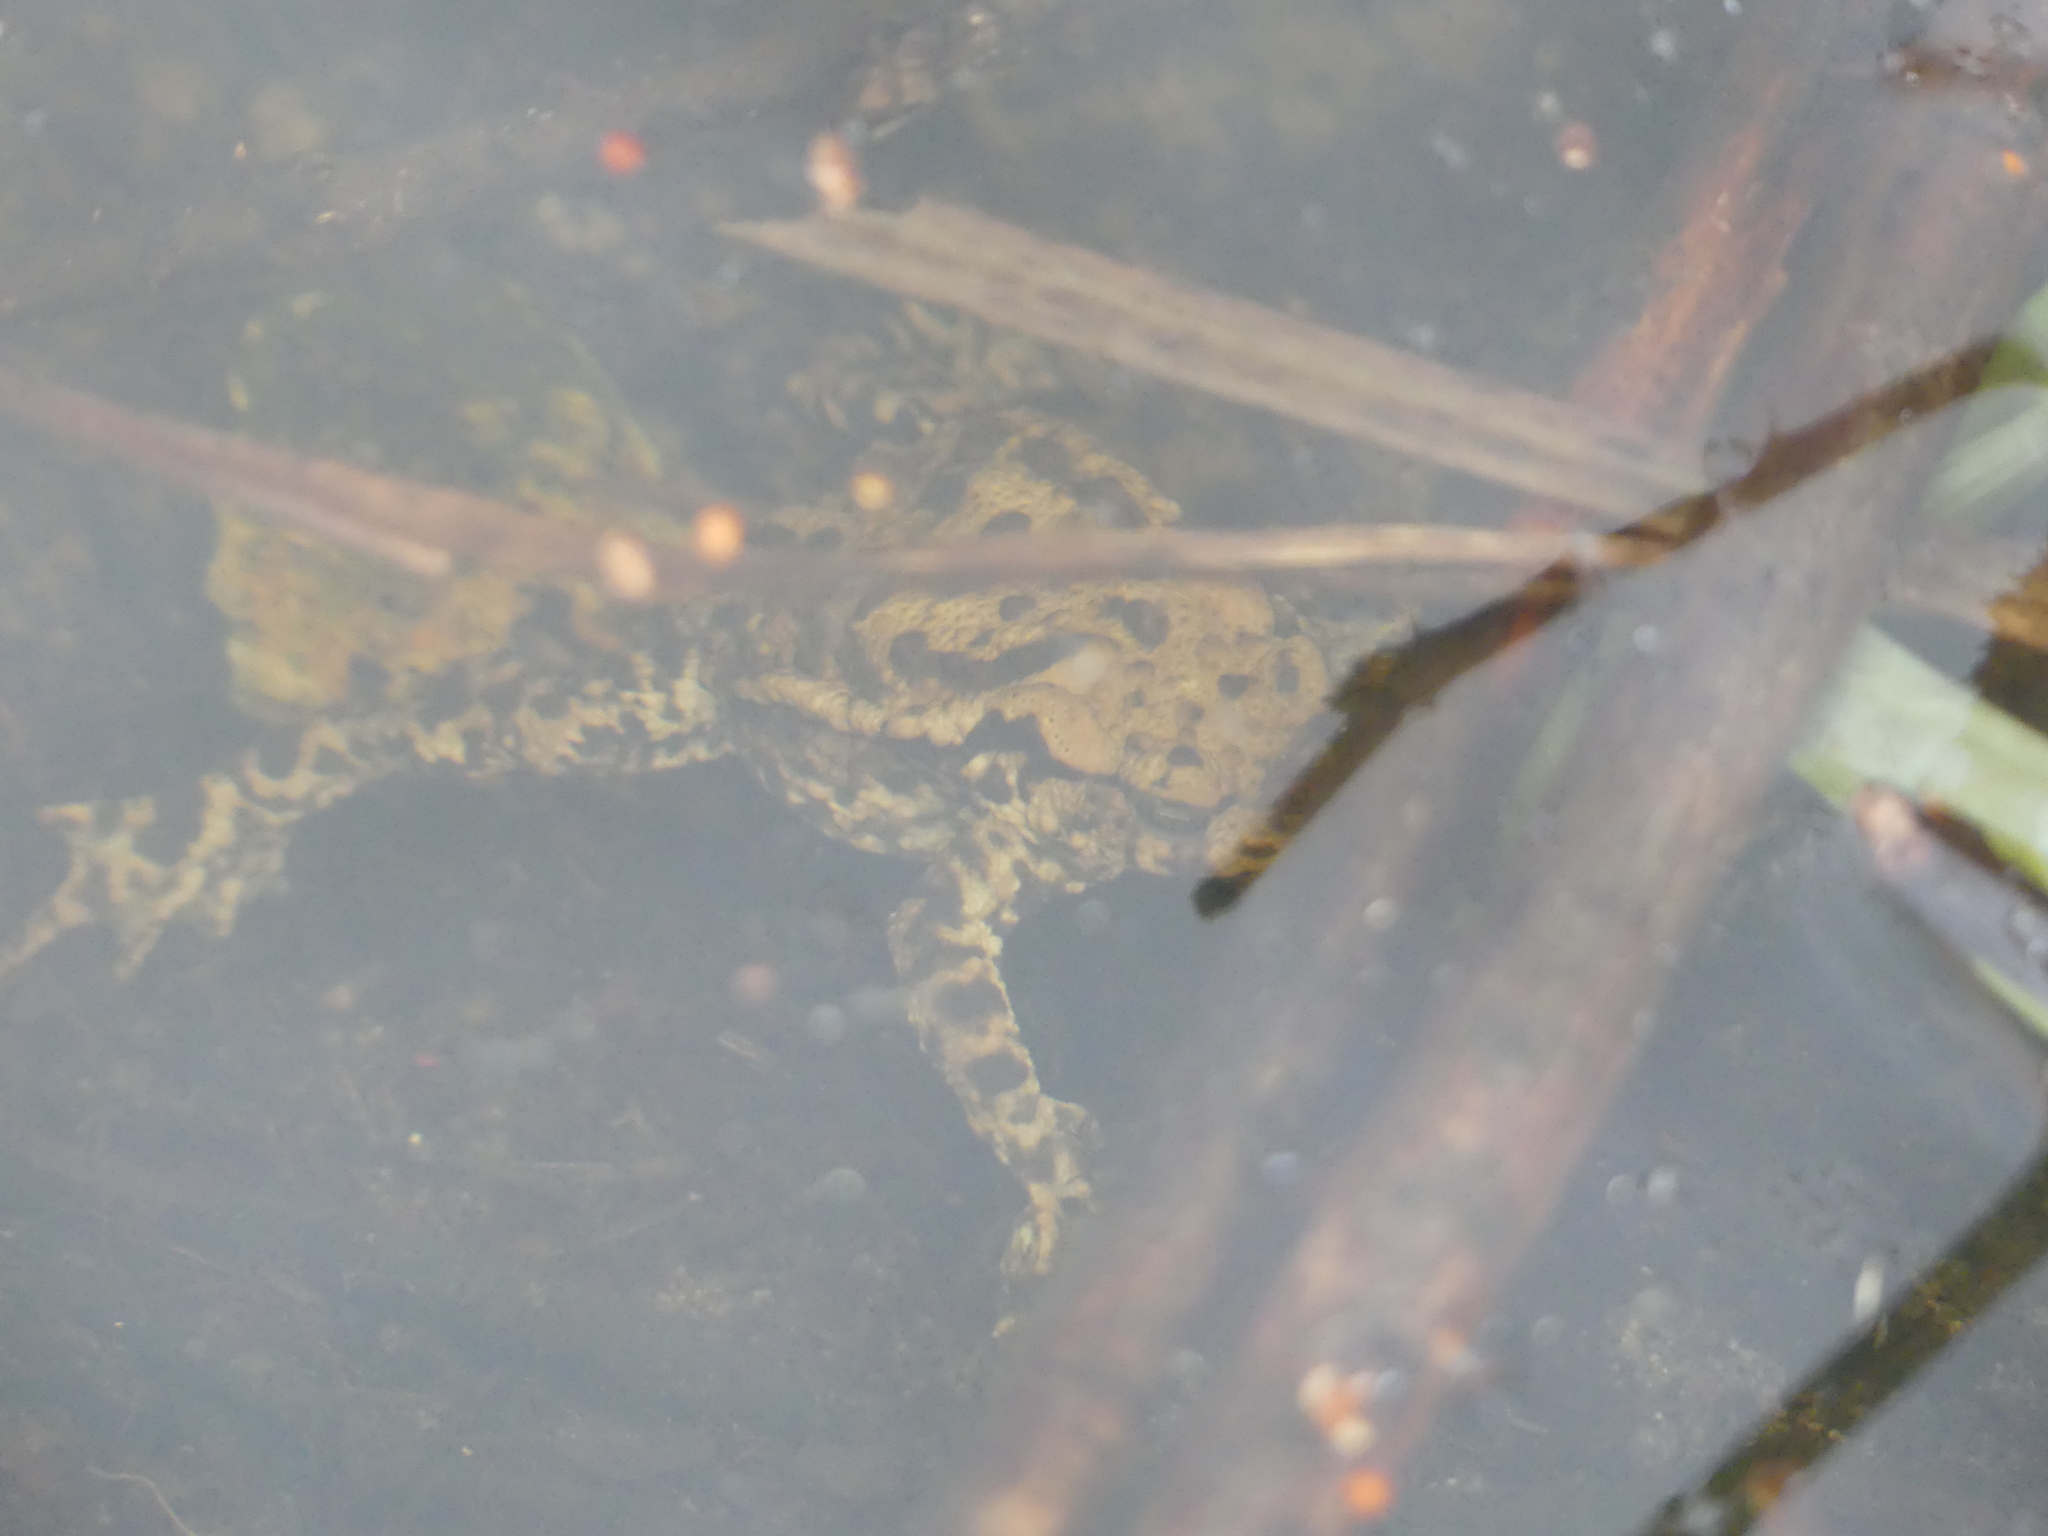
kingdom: Animalia
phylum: Chordata
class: Amphibia
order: Anura
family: Bufonidae
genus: Bufo
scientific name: Bufo bufo
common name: Common toad
